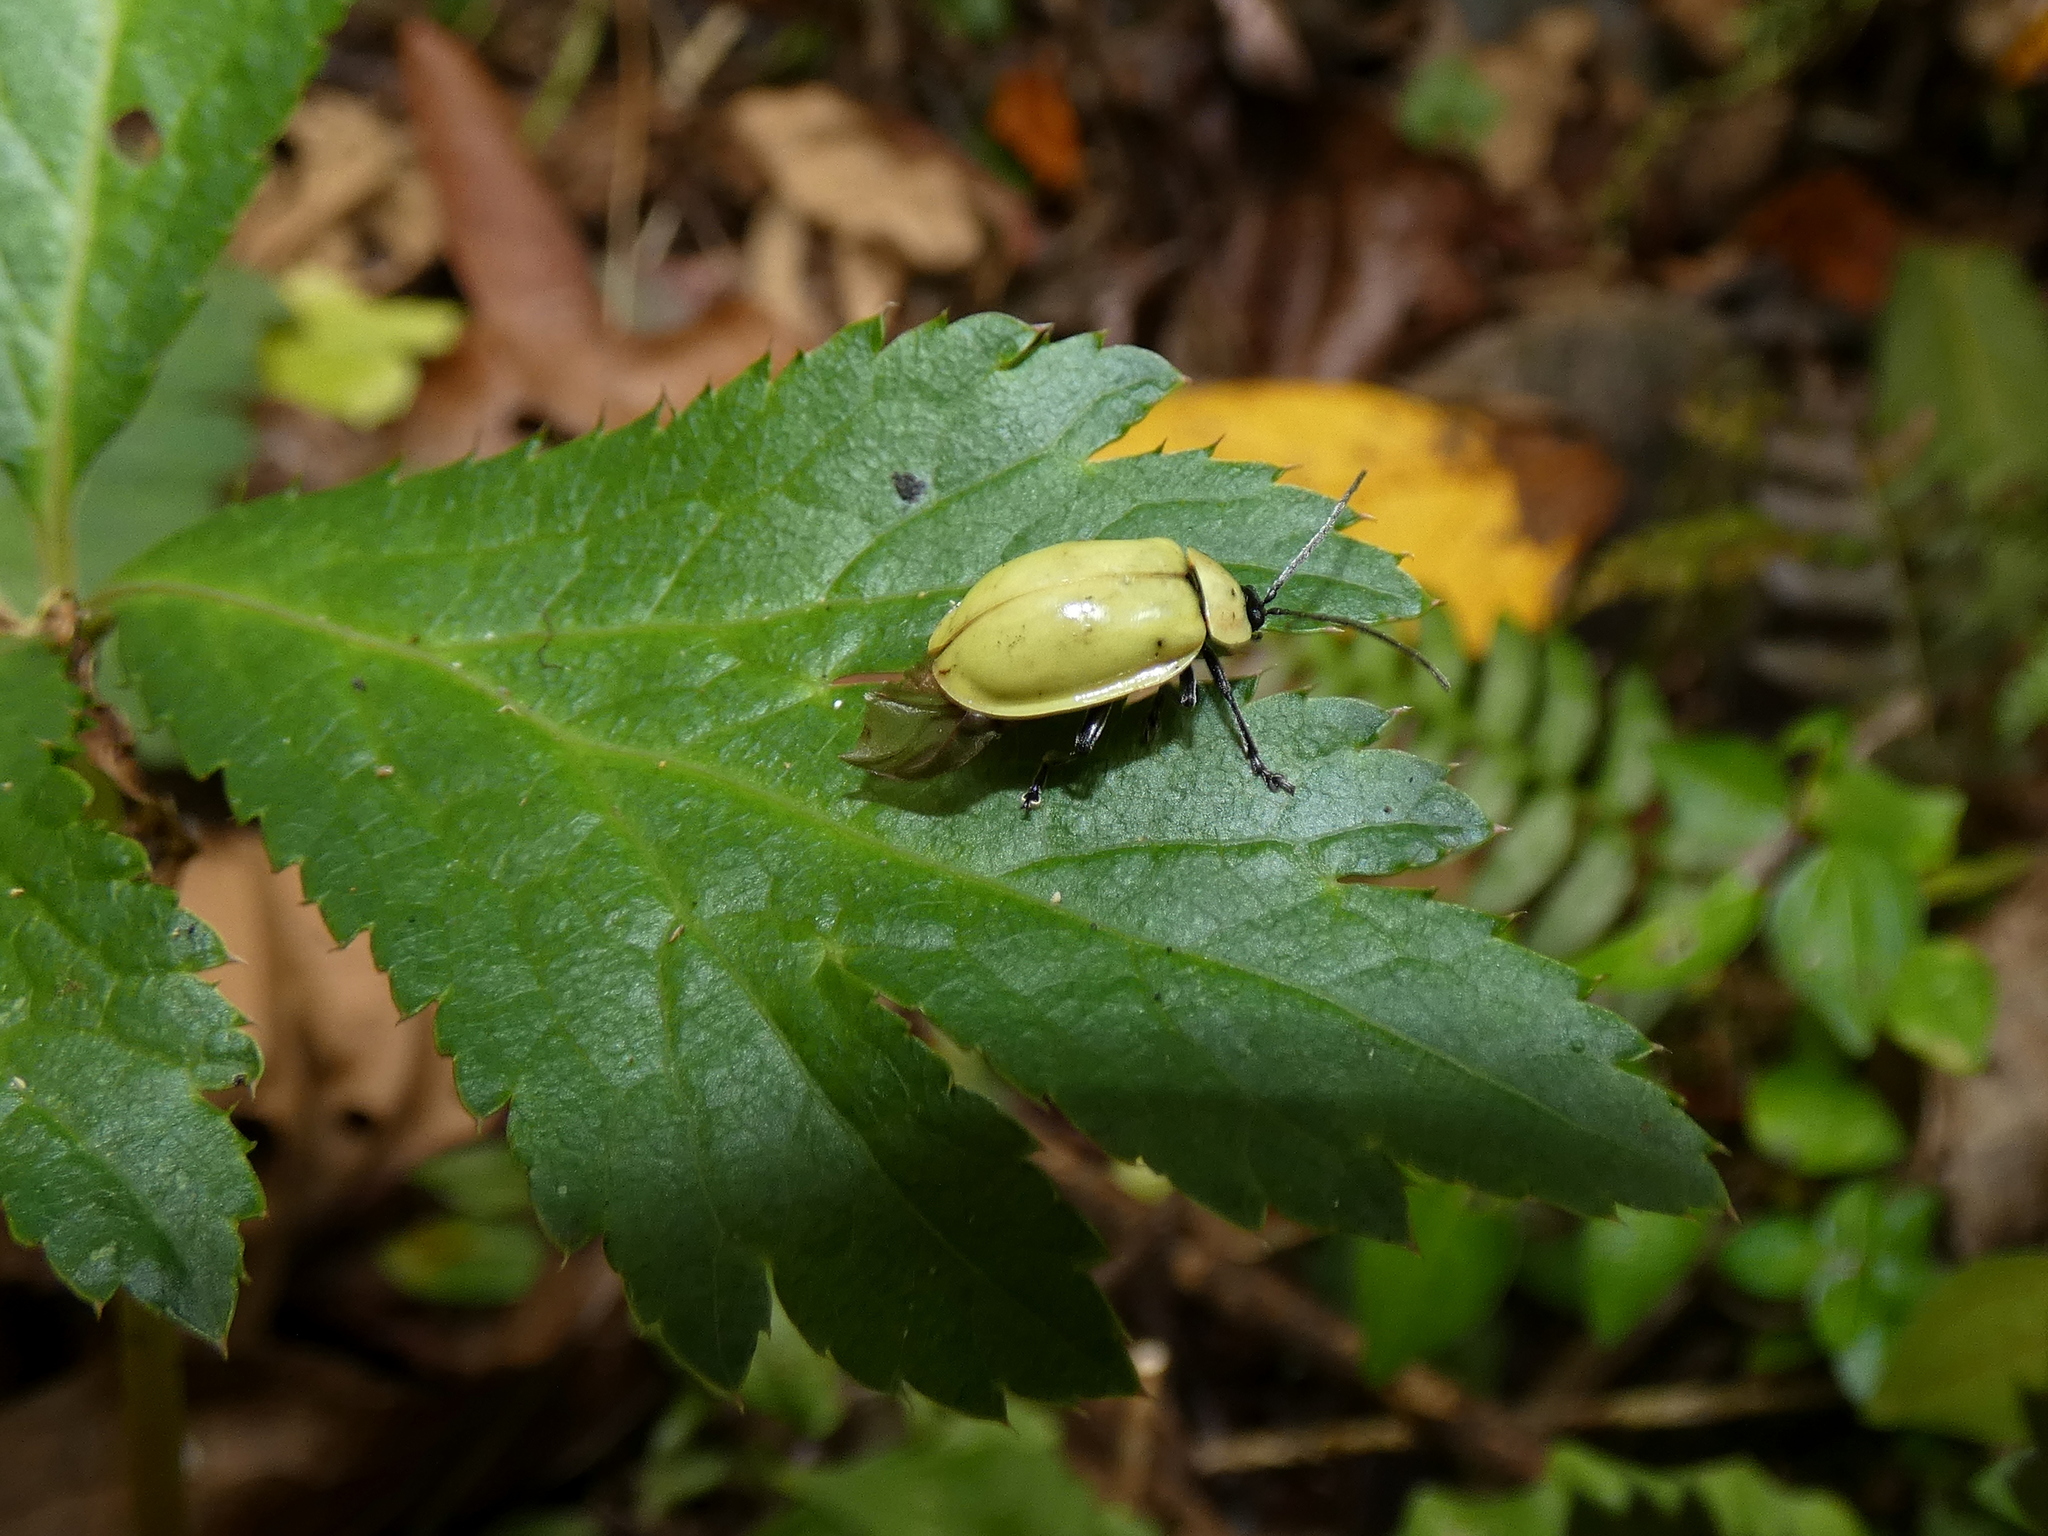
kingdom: Animalia
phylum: Arthropoda
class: Insecta
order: Coleoptera
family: Chrysomelidae
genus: Asphaera
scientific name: Asphaera
